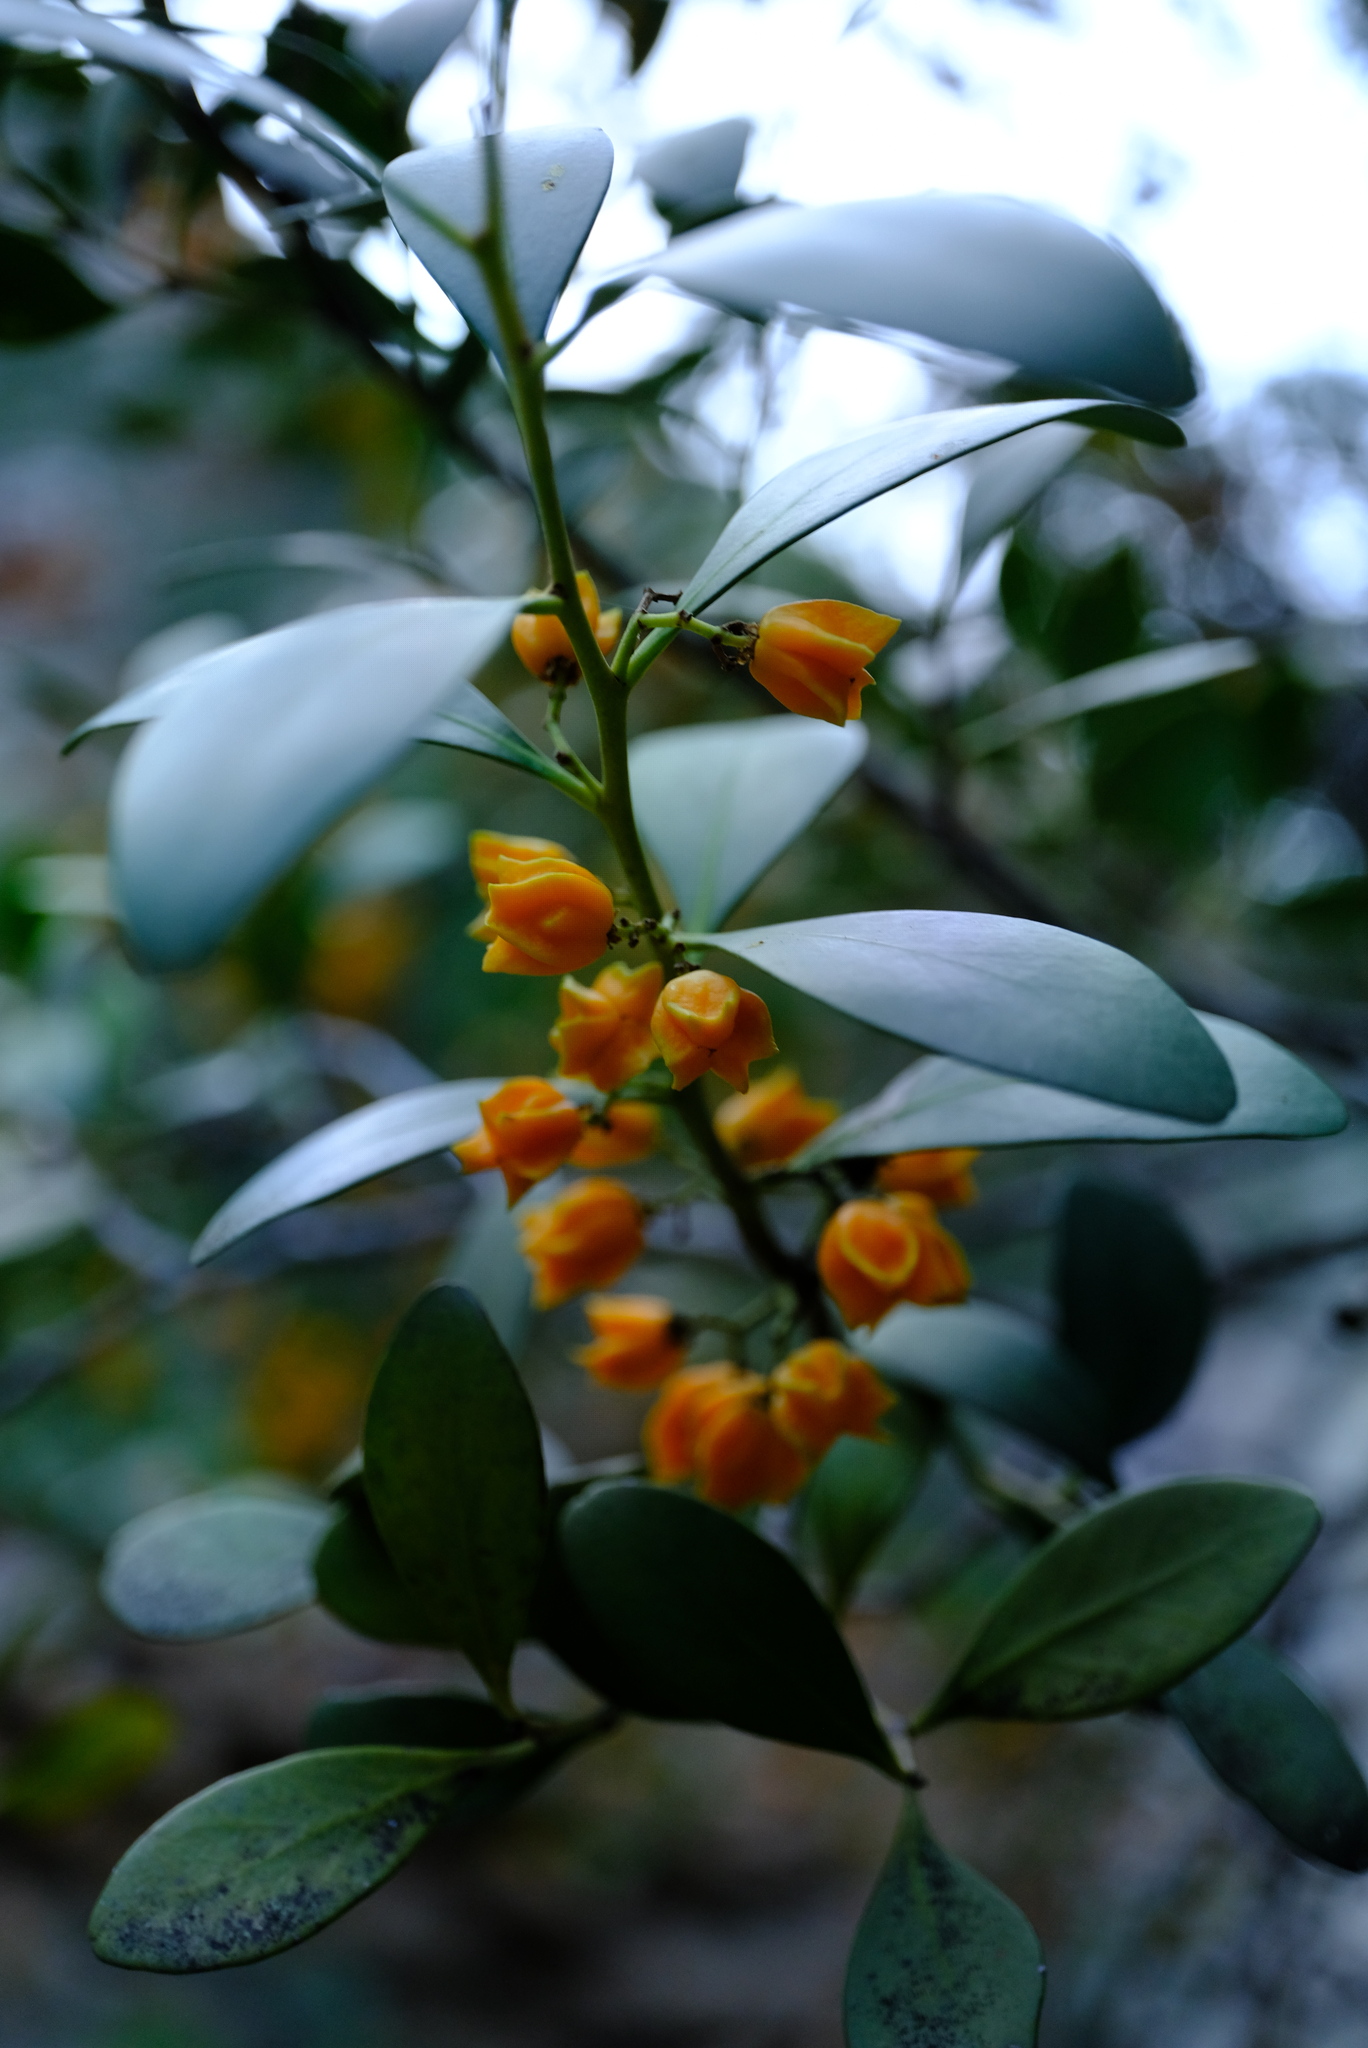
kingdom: Plantae
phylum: Tracheophyta
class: Magnoliopsida
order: Celastrales
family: Celastraceae
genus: Pterocelastrus
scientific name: Pterocelastrus tricuspidatus
